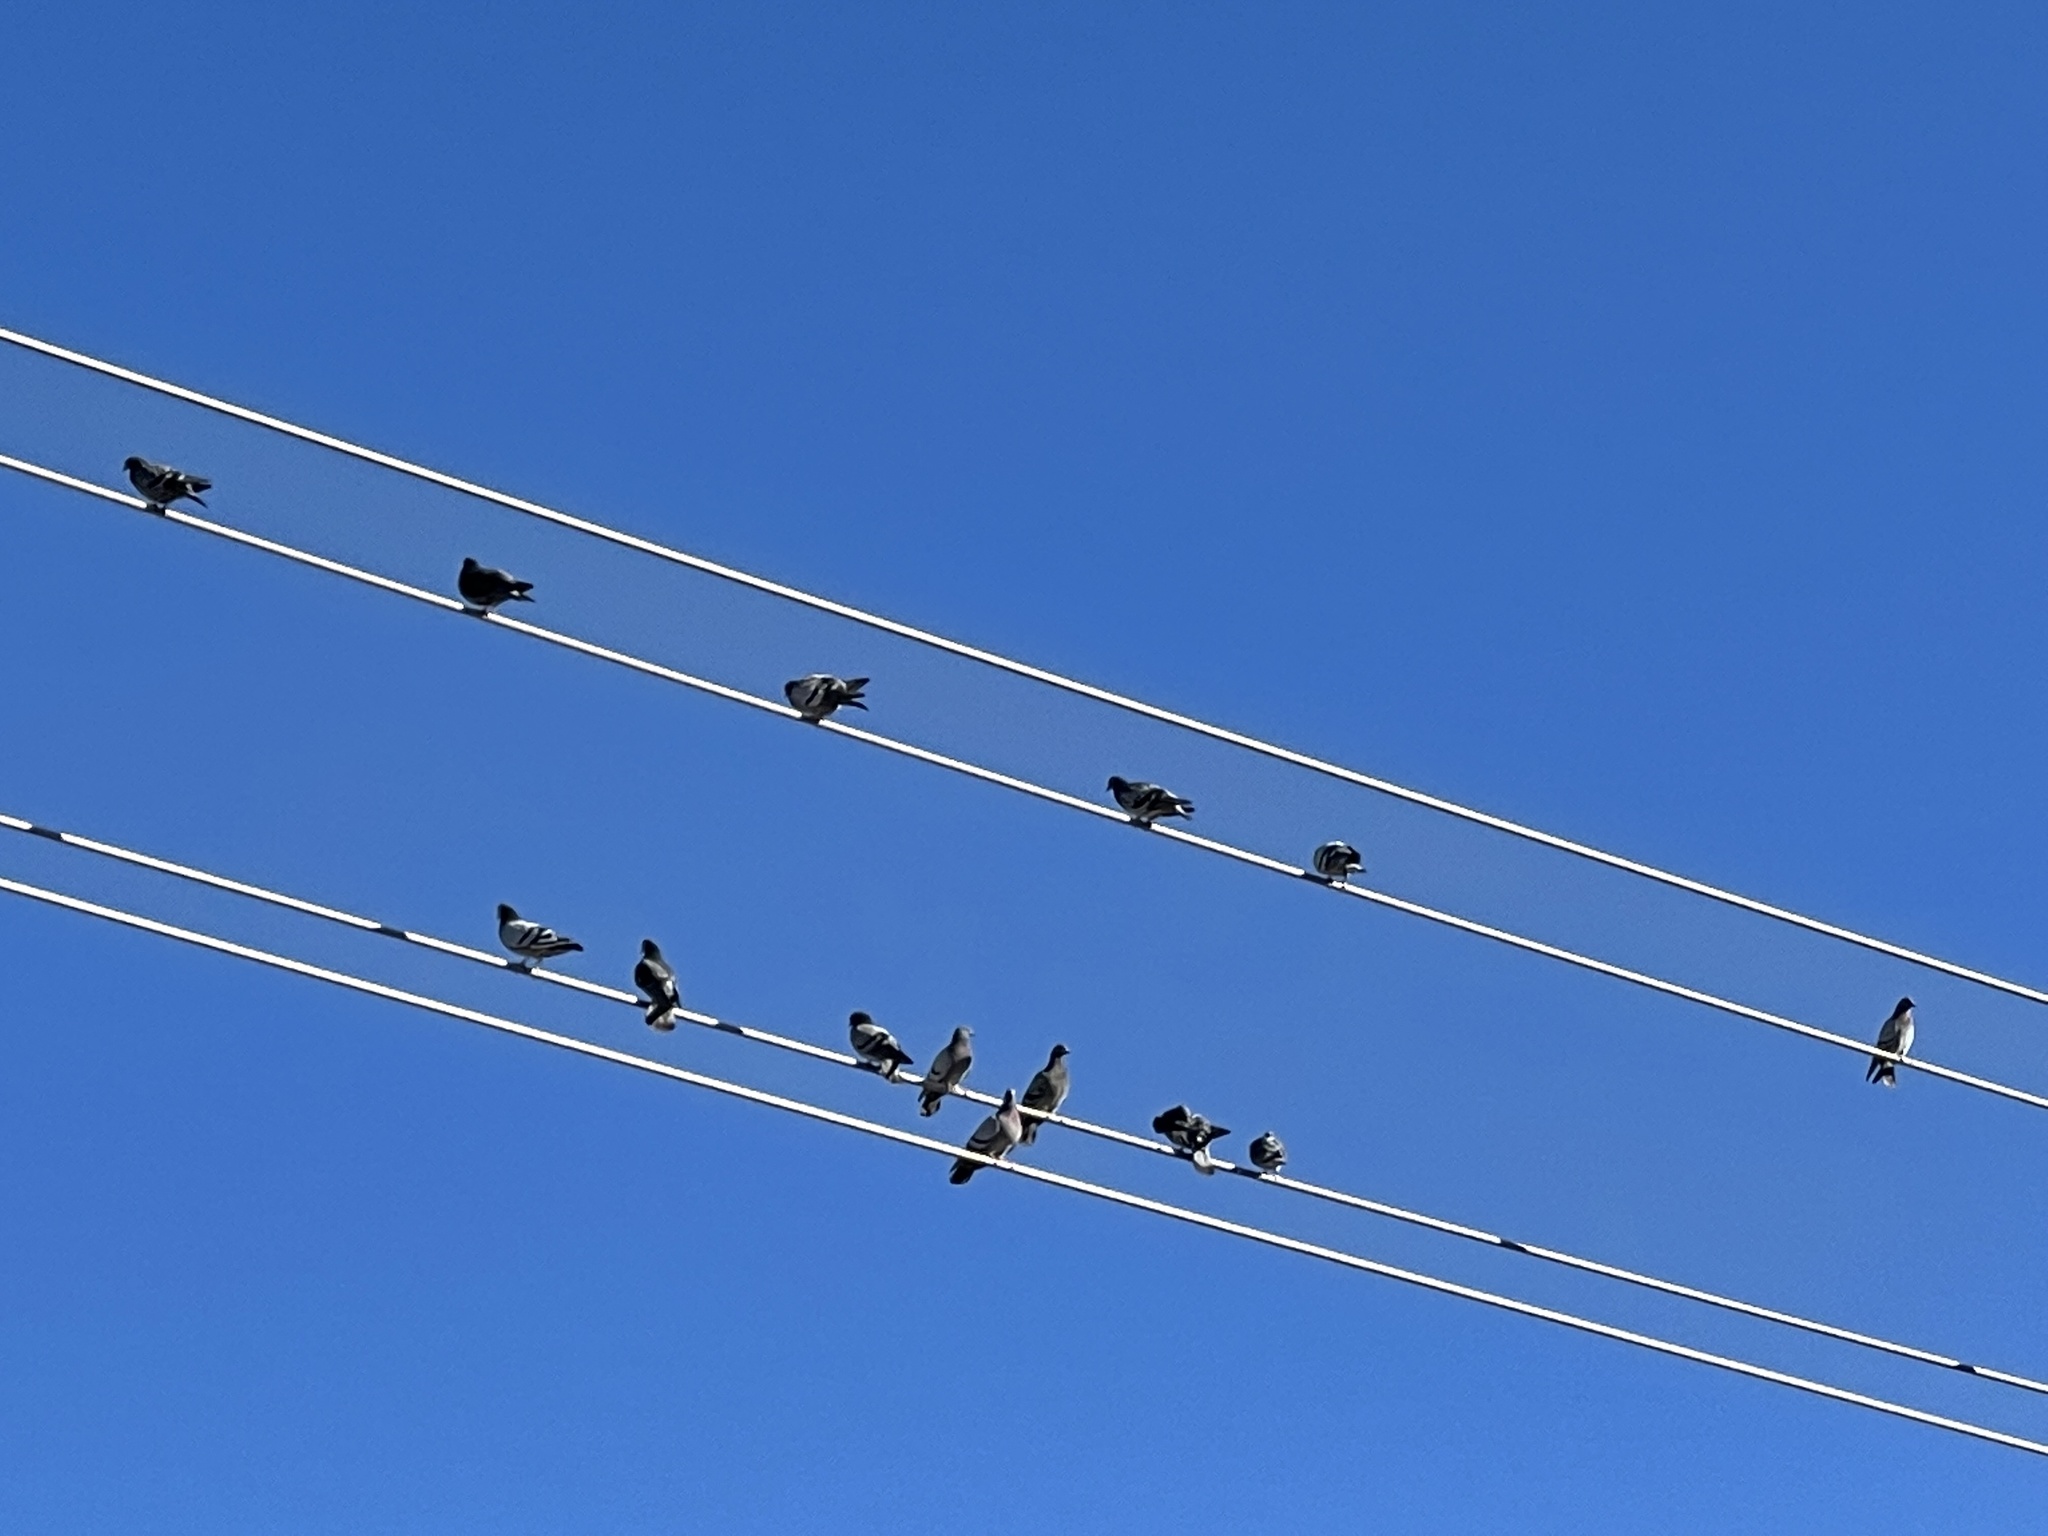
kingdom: Animalia
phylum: Chordata
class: Aves
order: Columbiformes
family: Columbidae
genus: Columba
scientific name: Columba livia
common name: Rock pigeon
